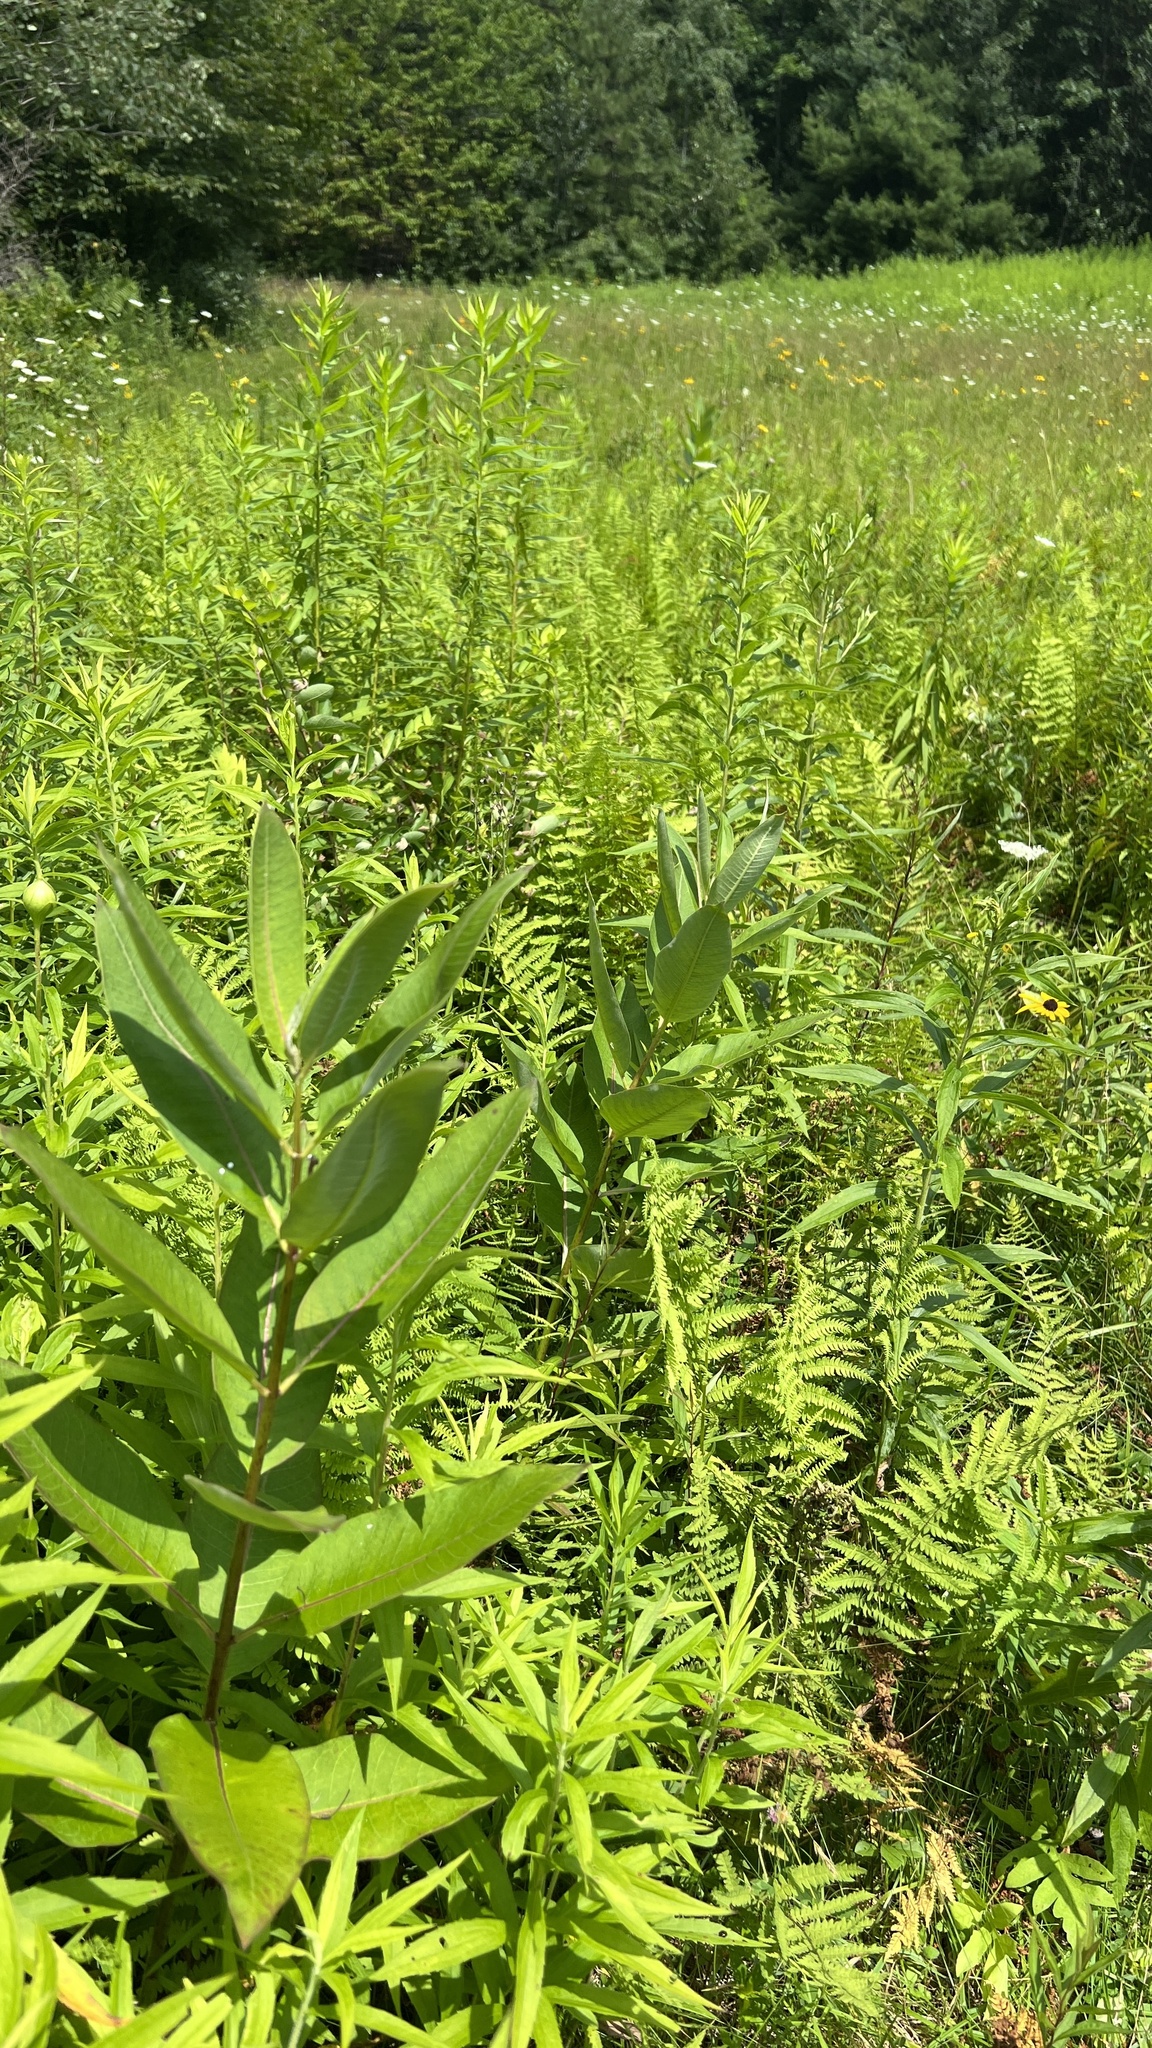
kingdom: Plantae
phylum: Tracheophyta
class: Magnoliopsida
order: Gentianales
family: Apocynaceae
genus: Asclepias
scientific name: Asclepias syriaca
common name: Common milkweed
